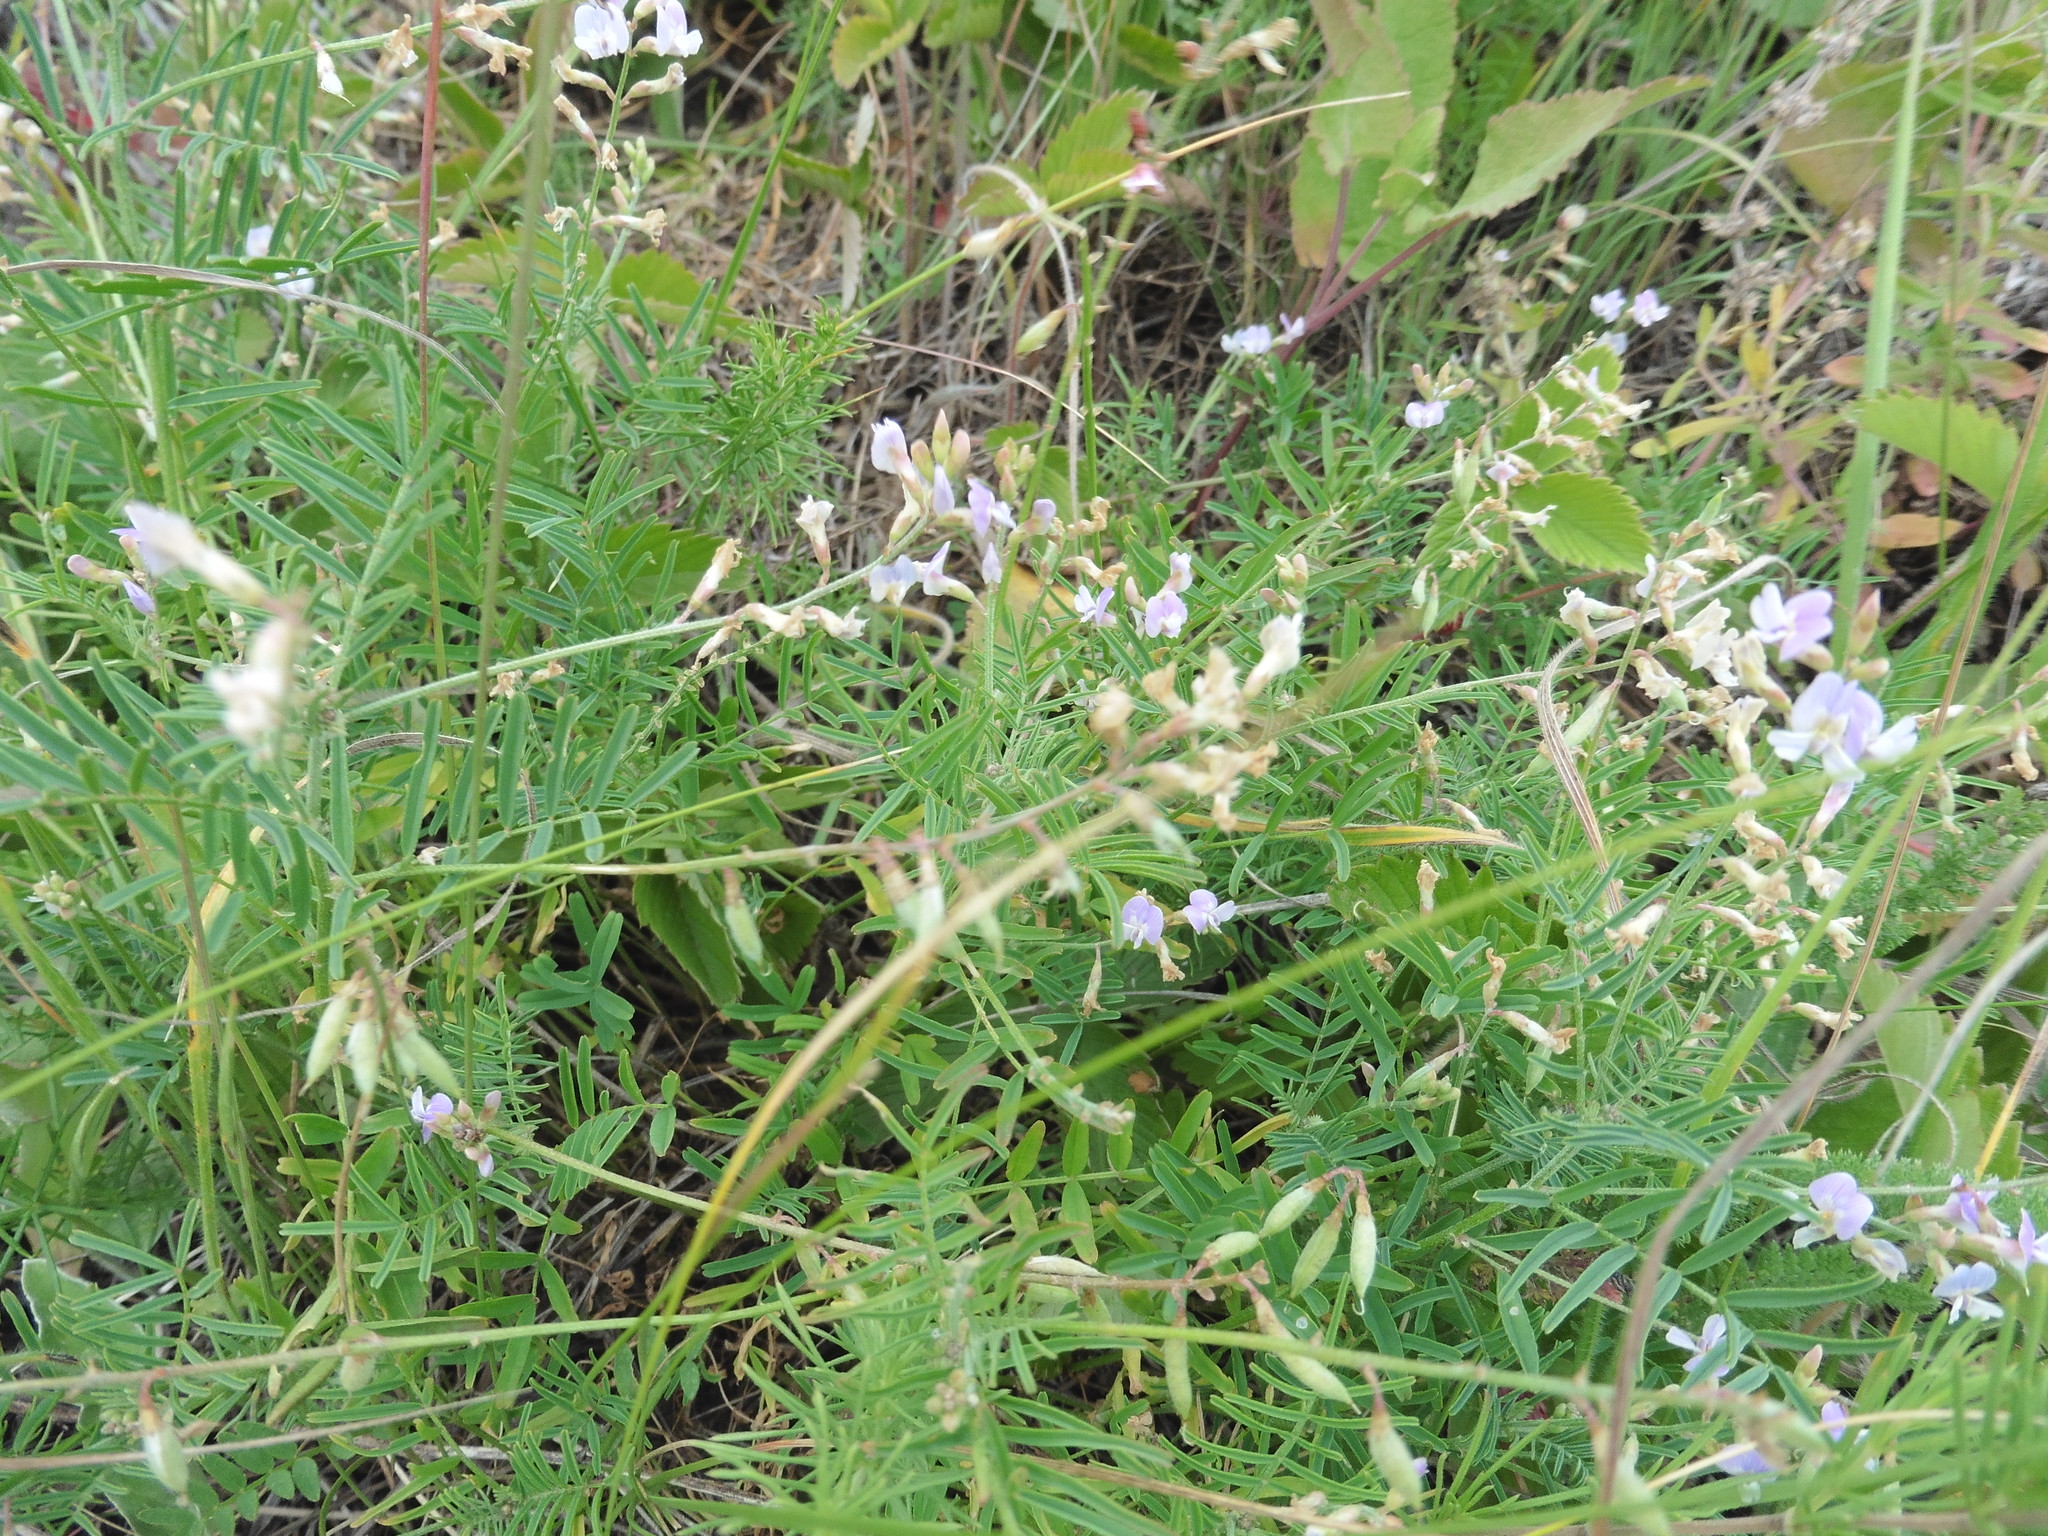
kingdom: Plantae
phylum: Tracheophyta
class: Magnoliopsida
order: Fabales
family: Fabaceae
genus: Astragalus
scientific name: Astragalus austriacus
